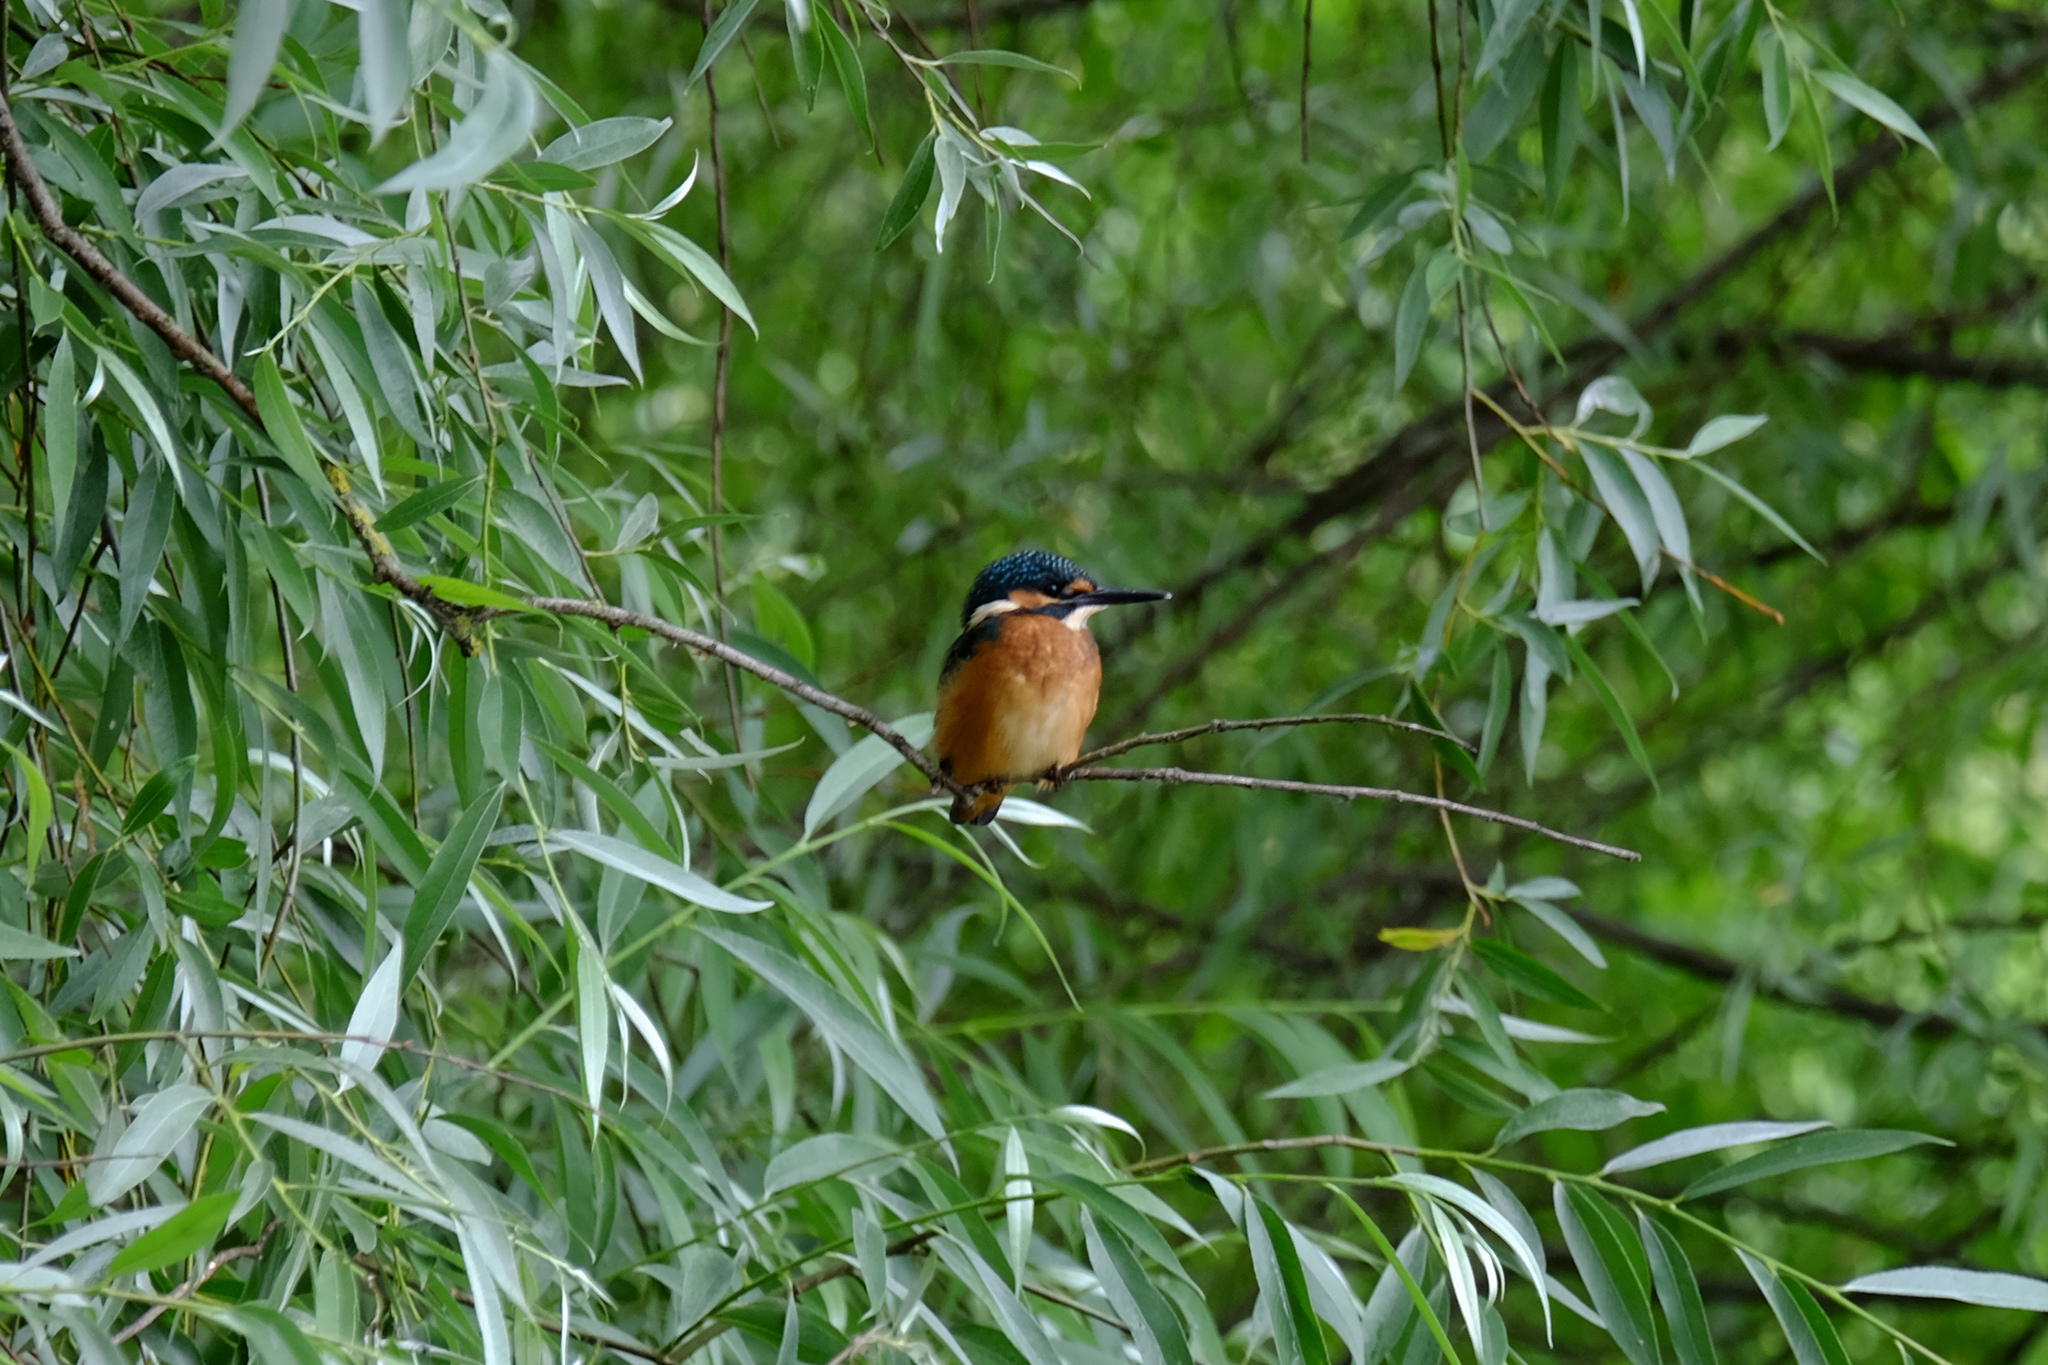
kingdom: Animalia
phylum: Chordata
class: Aves
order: Coraciiformes
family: Alcedinidae
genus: Alcedo
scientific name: Alcedo atthis
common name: Common kingfisher
